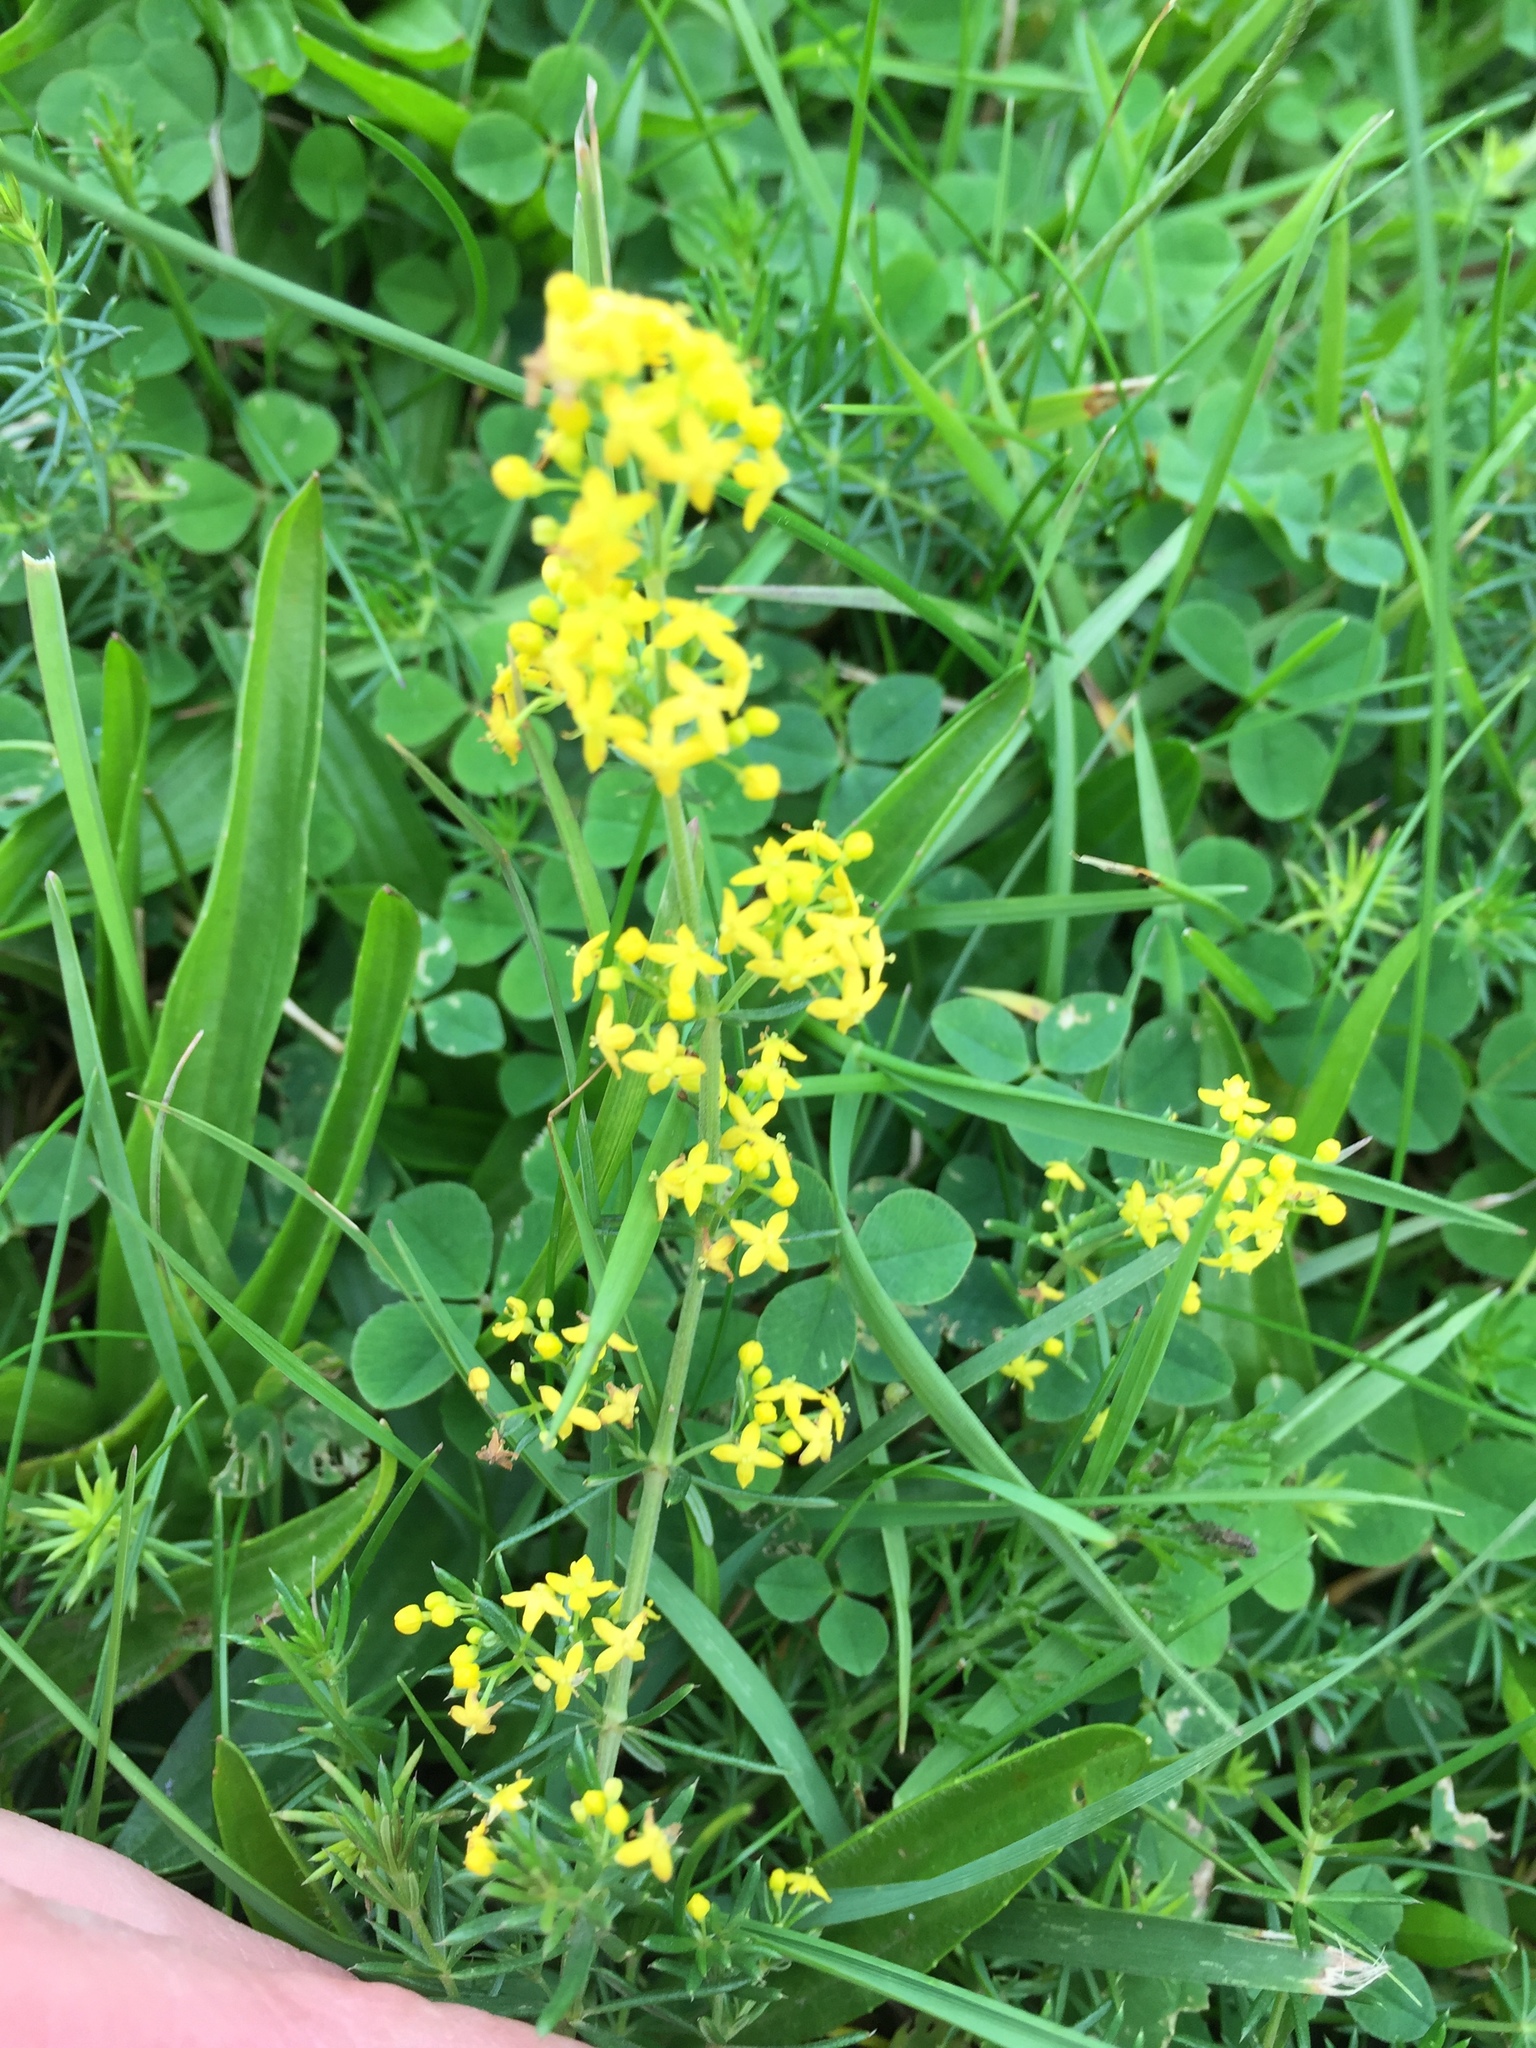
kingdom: Plantae
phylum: Tracheophyta
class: Magnoliopsida
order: Gentianales
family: Rubiaceae
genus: Galium
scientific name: Galium verum
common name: Lady's bedstraw
